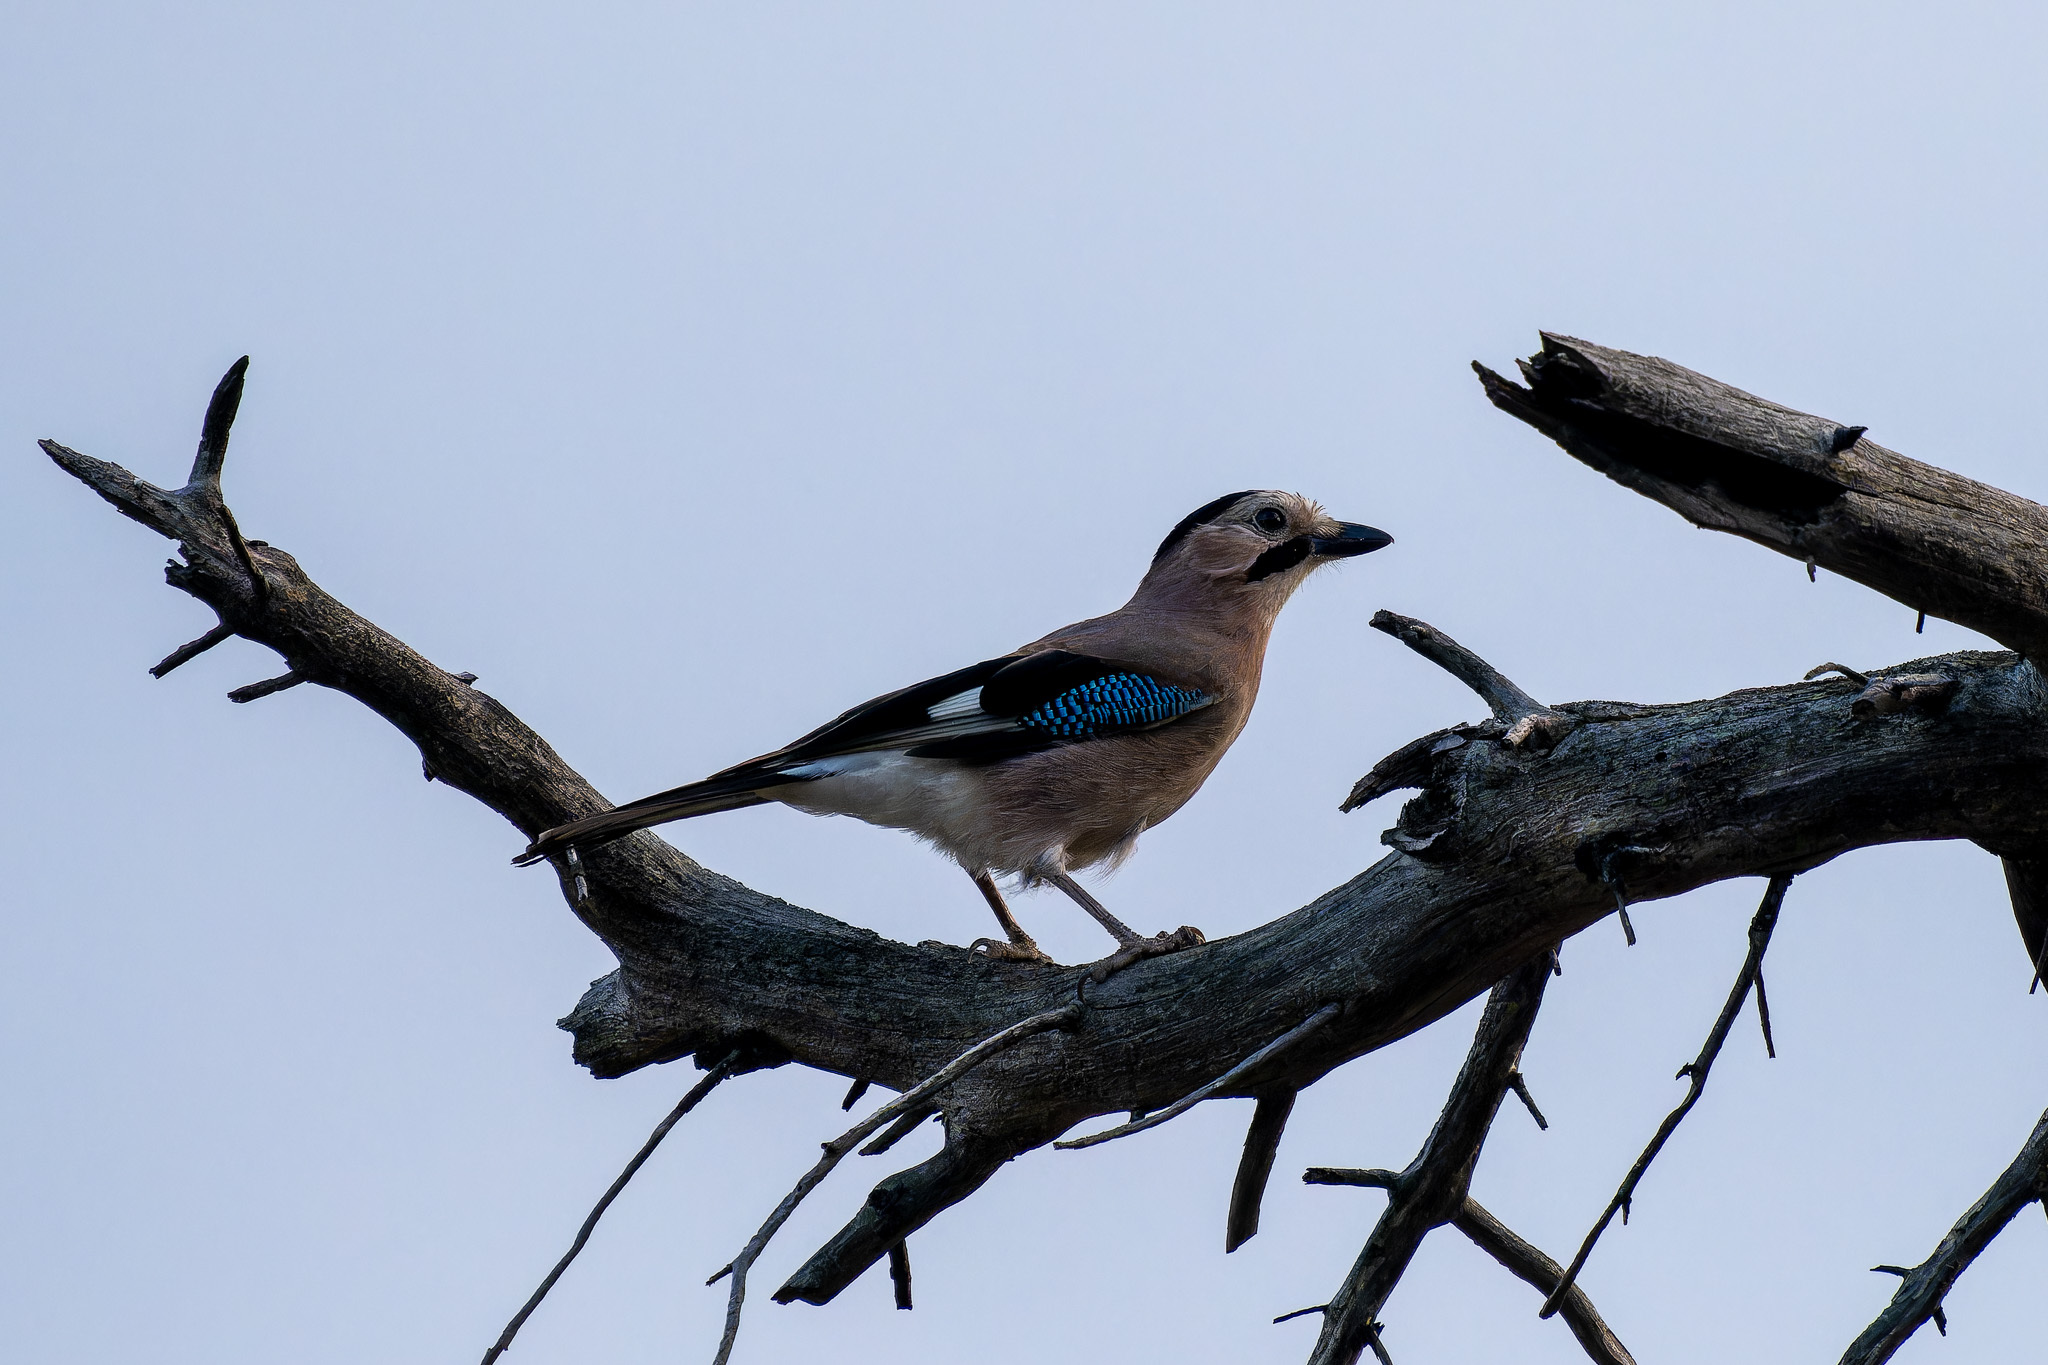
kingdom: Animalia
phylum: Chordata
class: Aves
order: Passeriformes
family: Corvidae
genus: Garrulus
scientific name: Garrulus glandarius
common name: Eurasian jay
